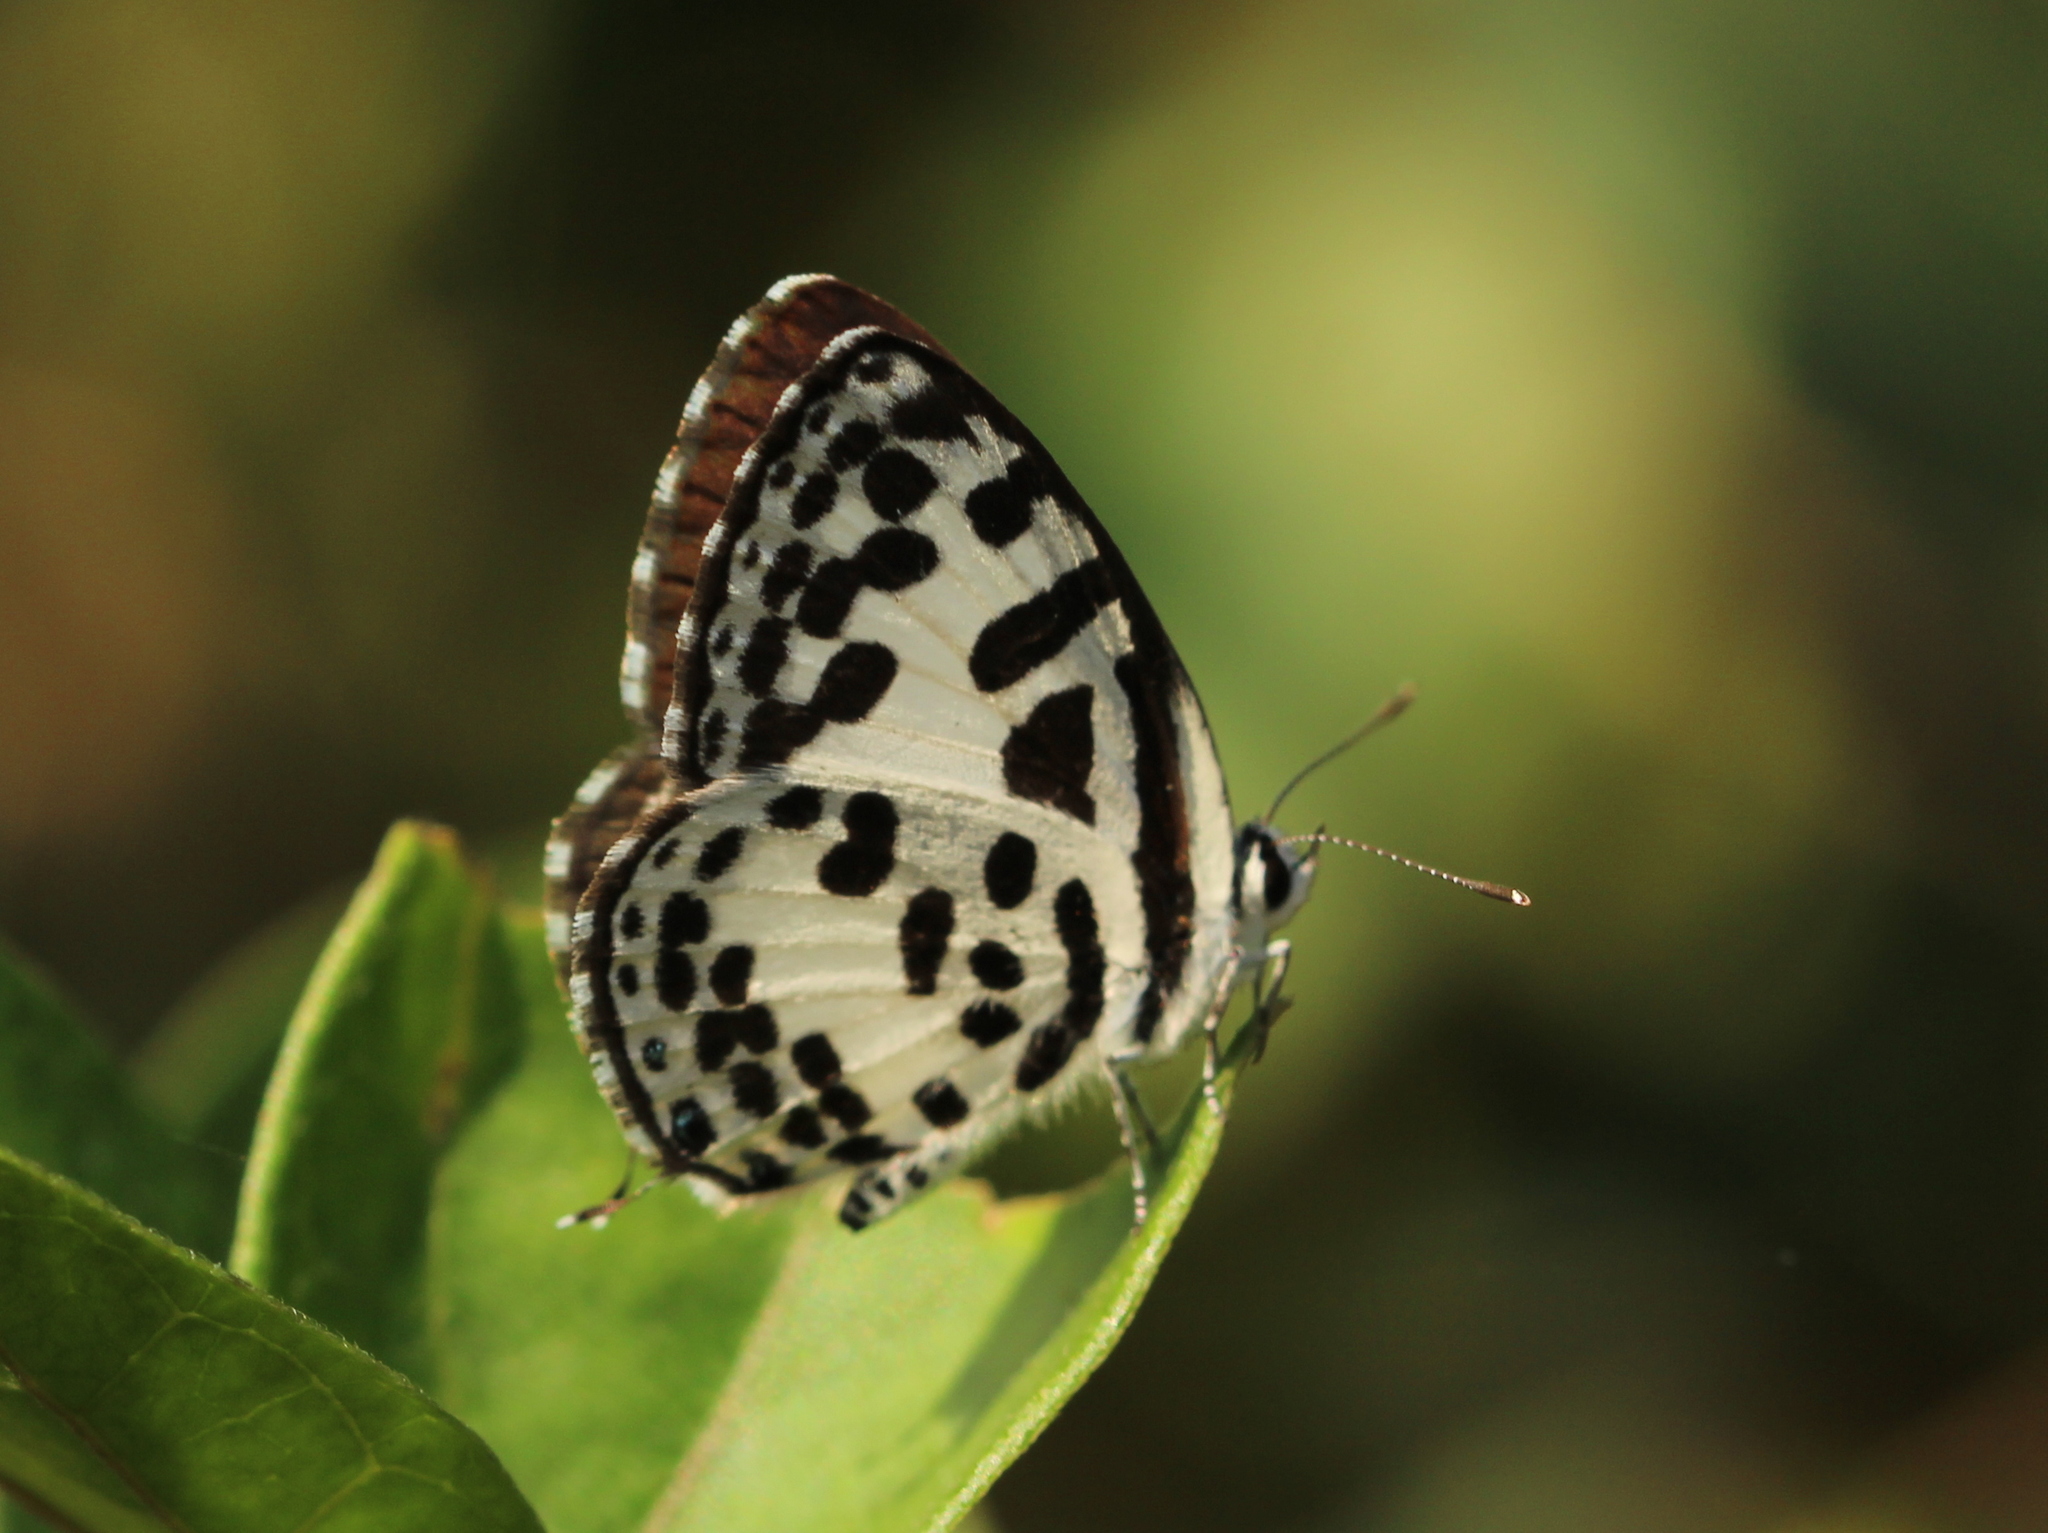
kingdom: Animalia
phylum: Arthropoda
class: Insecta
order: Lepidoptera
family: Lycaenidae
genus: Castalius
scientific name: Castalius rosimon
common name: Common pierrot
